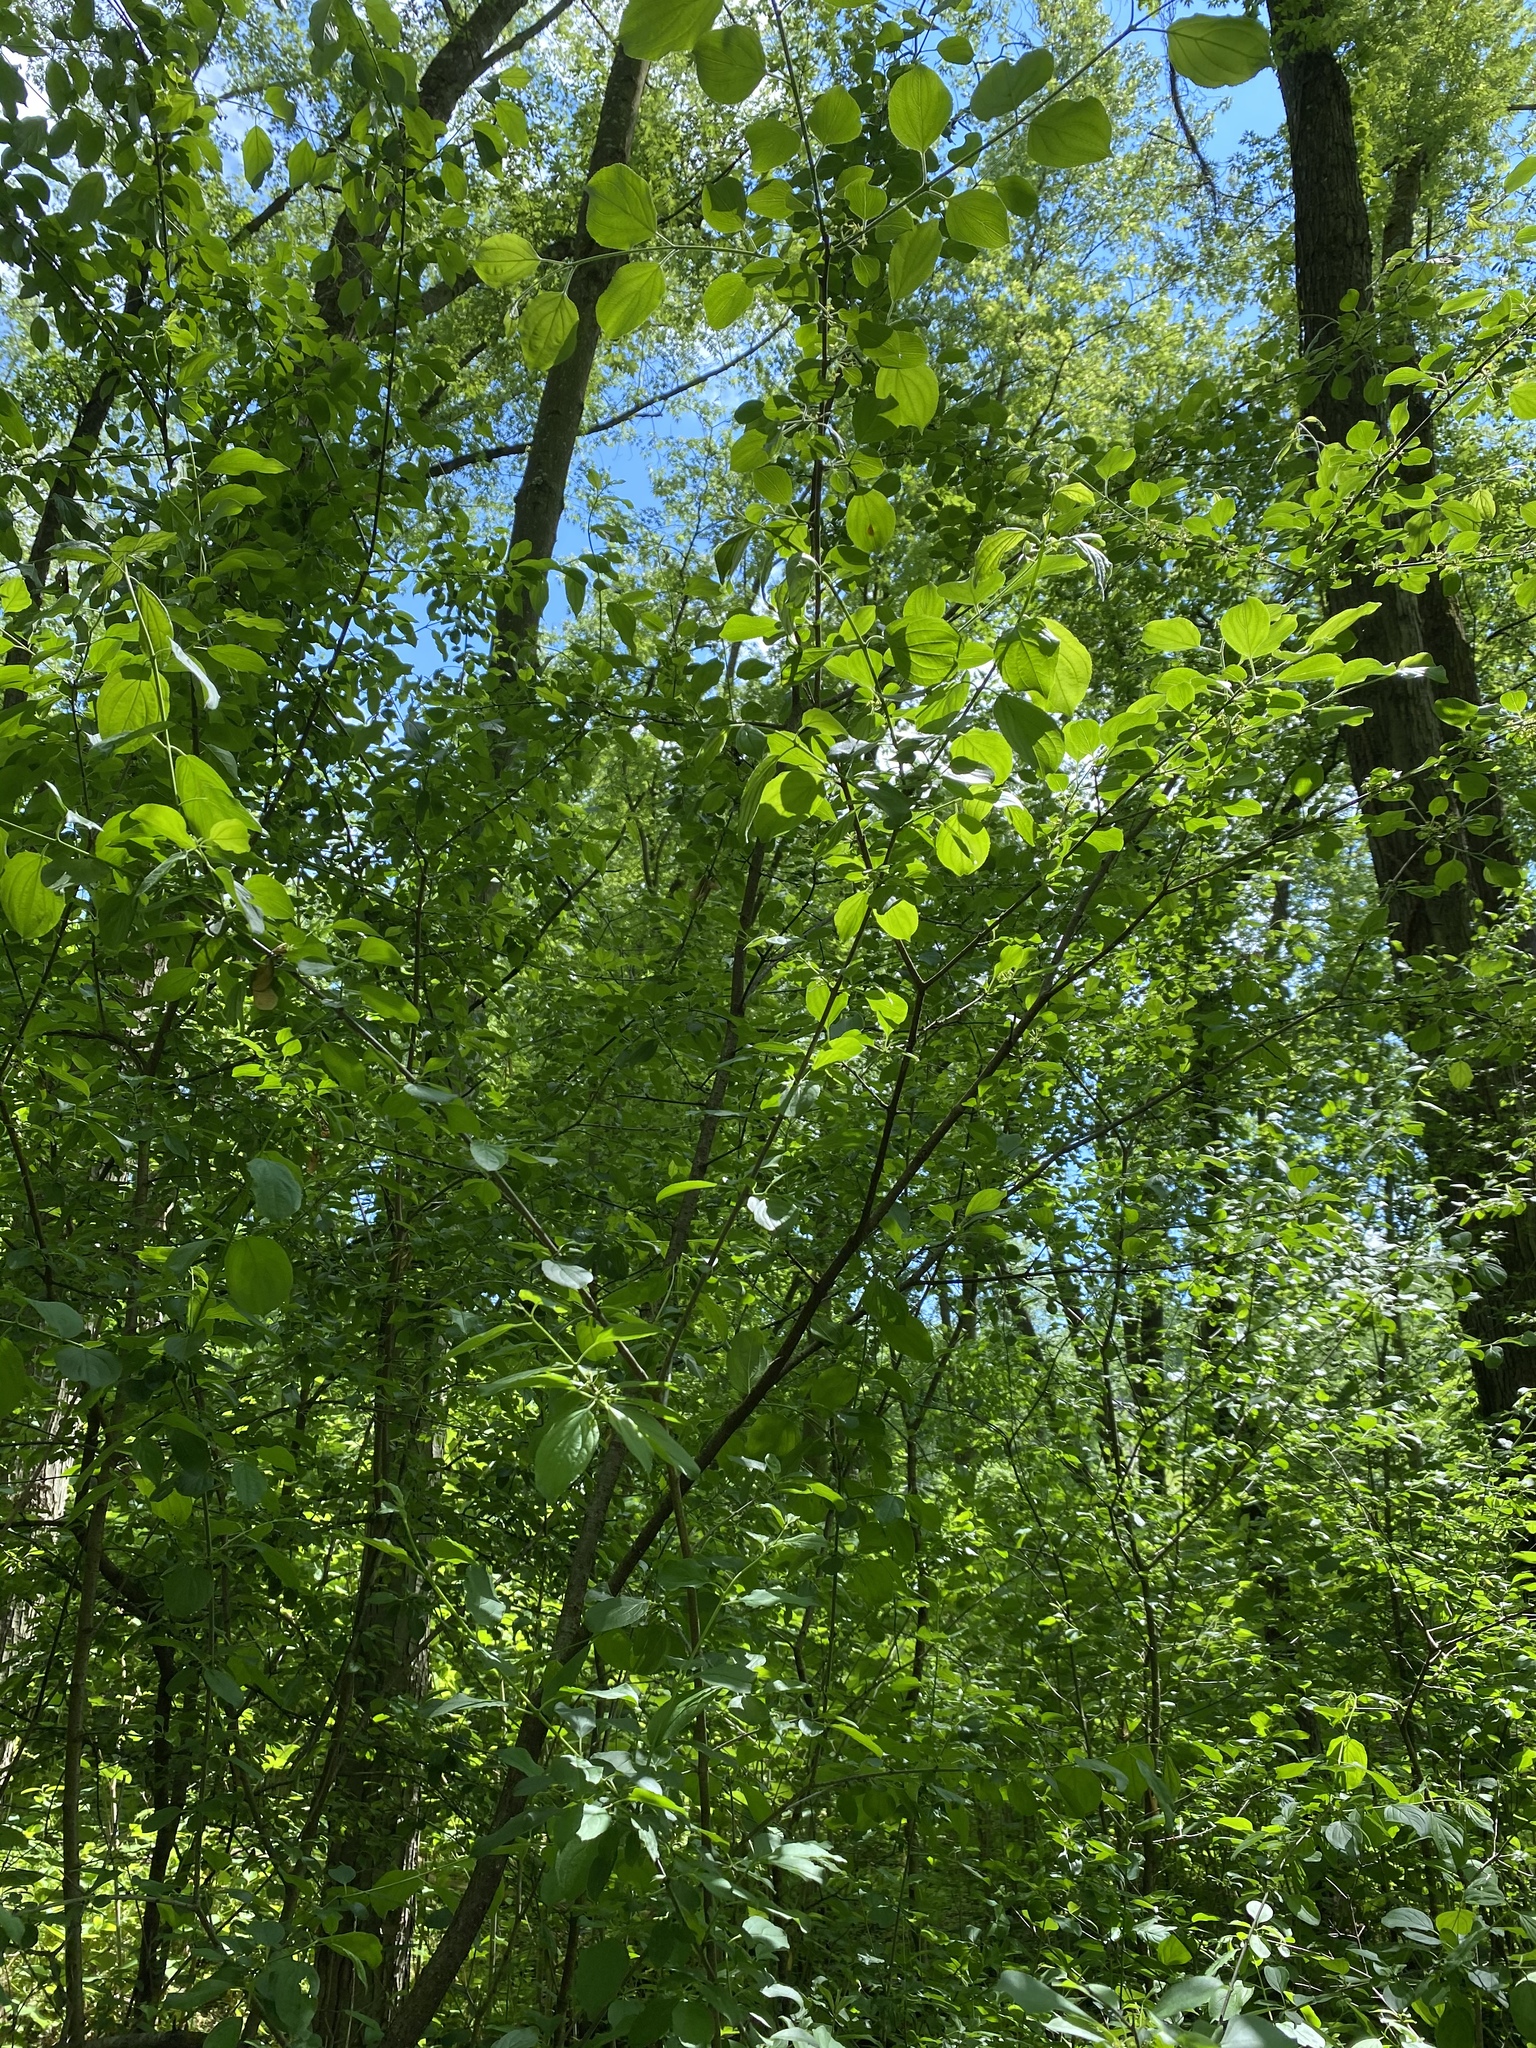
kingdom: Plantae
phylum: Tracheophyta
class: Magnoliopsida
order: Rosales
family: Rhamnaceae
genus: Rhamnus
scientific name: Rhamnus cathartica
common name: Common buckthorn
